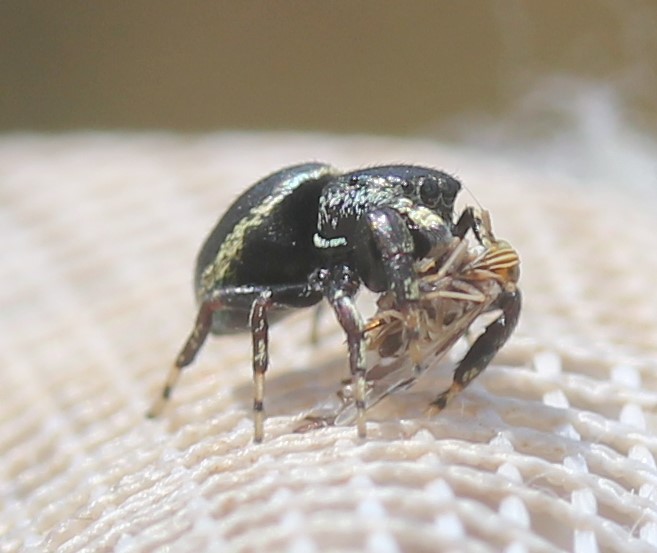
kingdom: Animalia
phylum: Arthropoda
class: Arachnida
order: Araneae
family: Salticidae
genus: Sassacus
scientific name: Sassacus papenhoei
